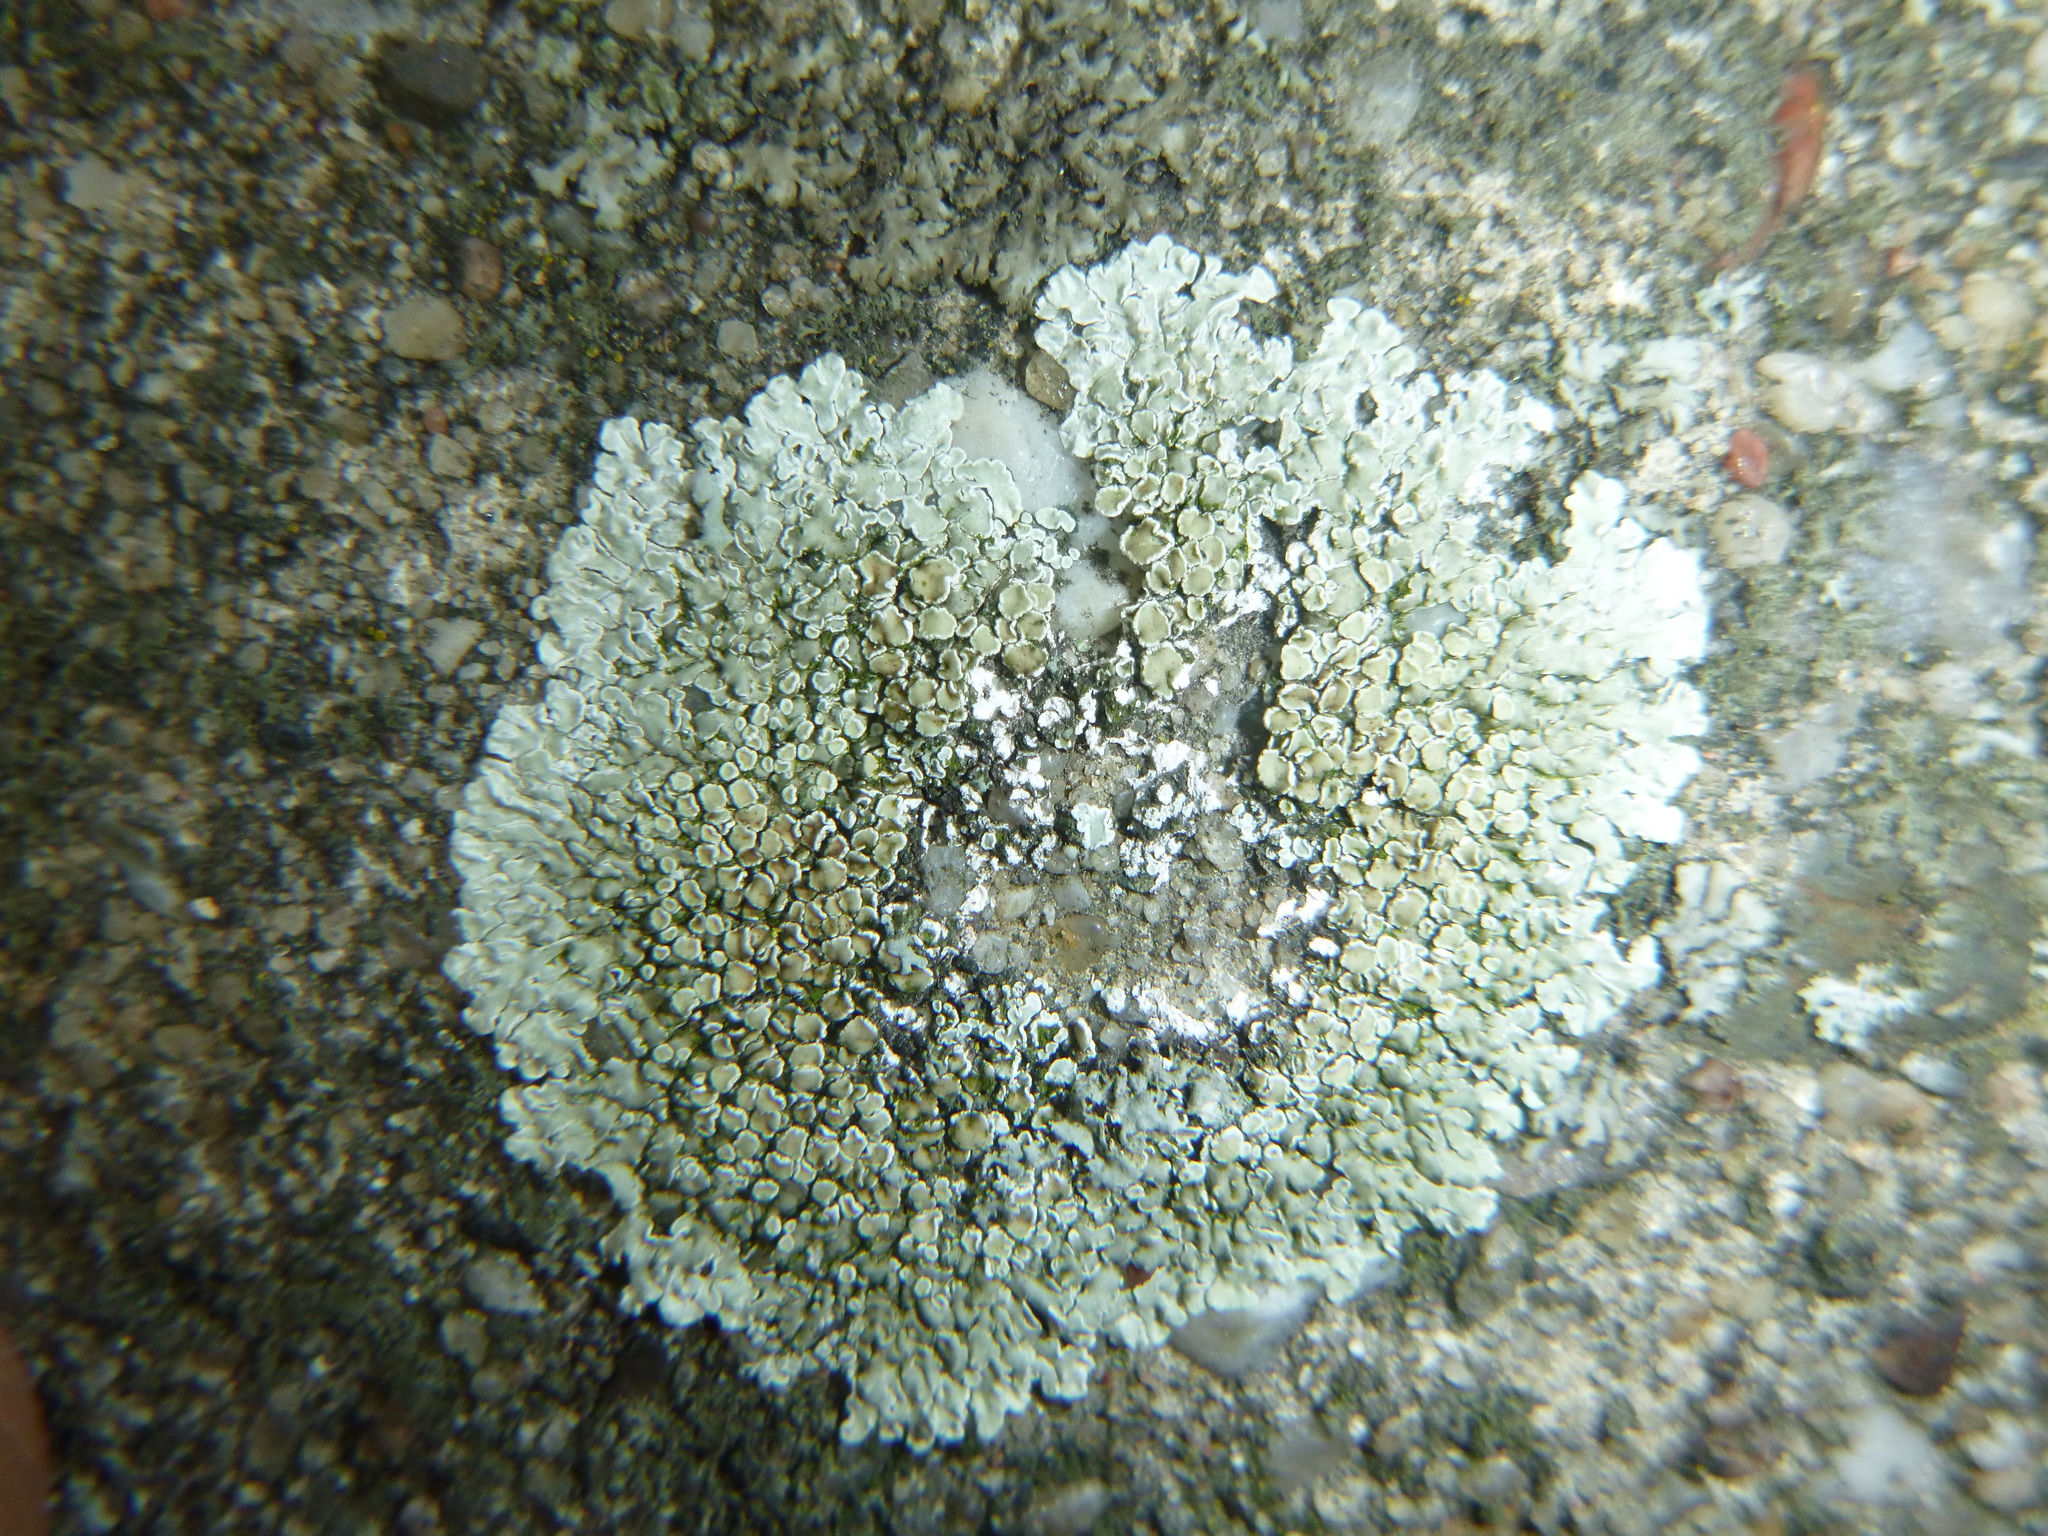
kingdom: Fungi
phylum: Ascomycota
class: Lecanoromycetes
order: Lecanorales
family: Lecanoraceae
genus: Protoparmeliopsis
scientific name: Protoparmeliopsis muralis
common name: Stonewall rim lichen
